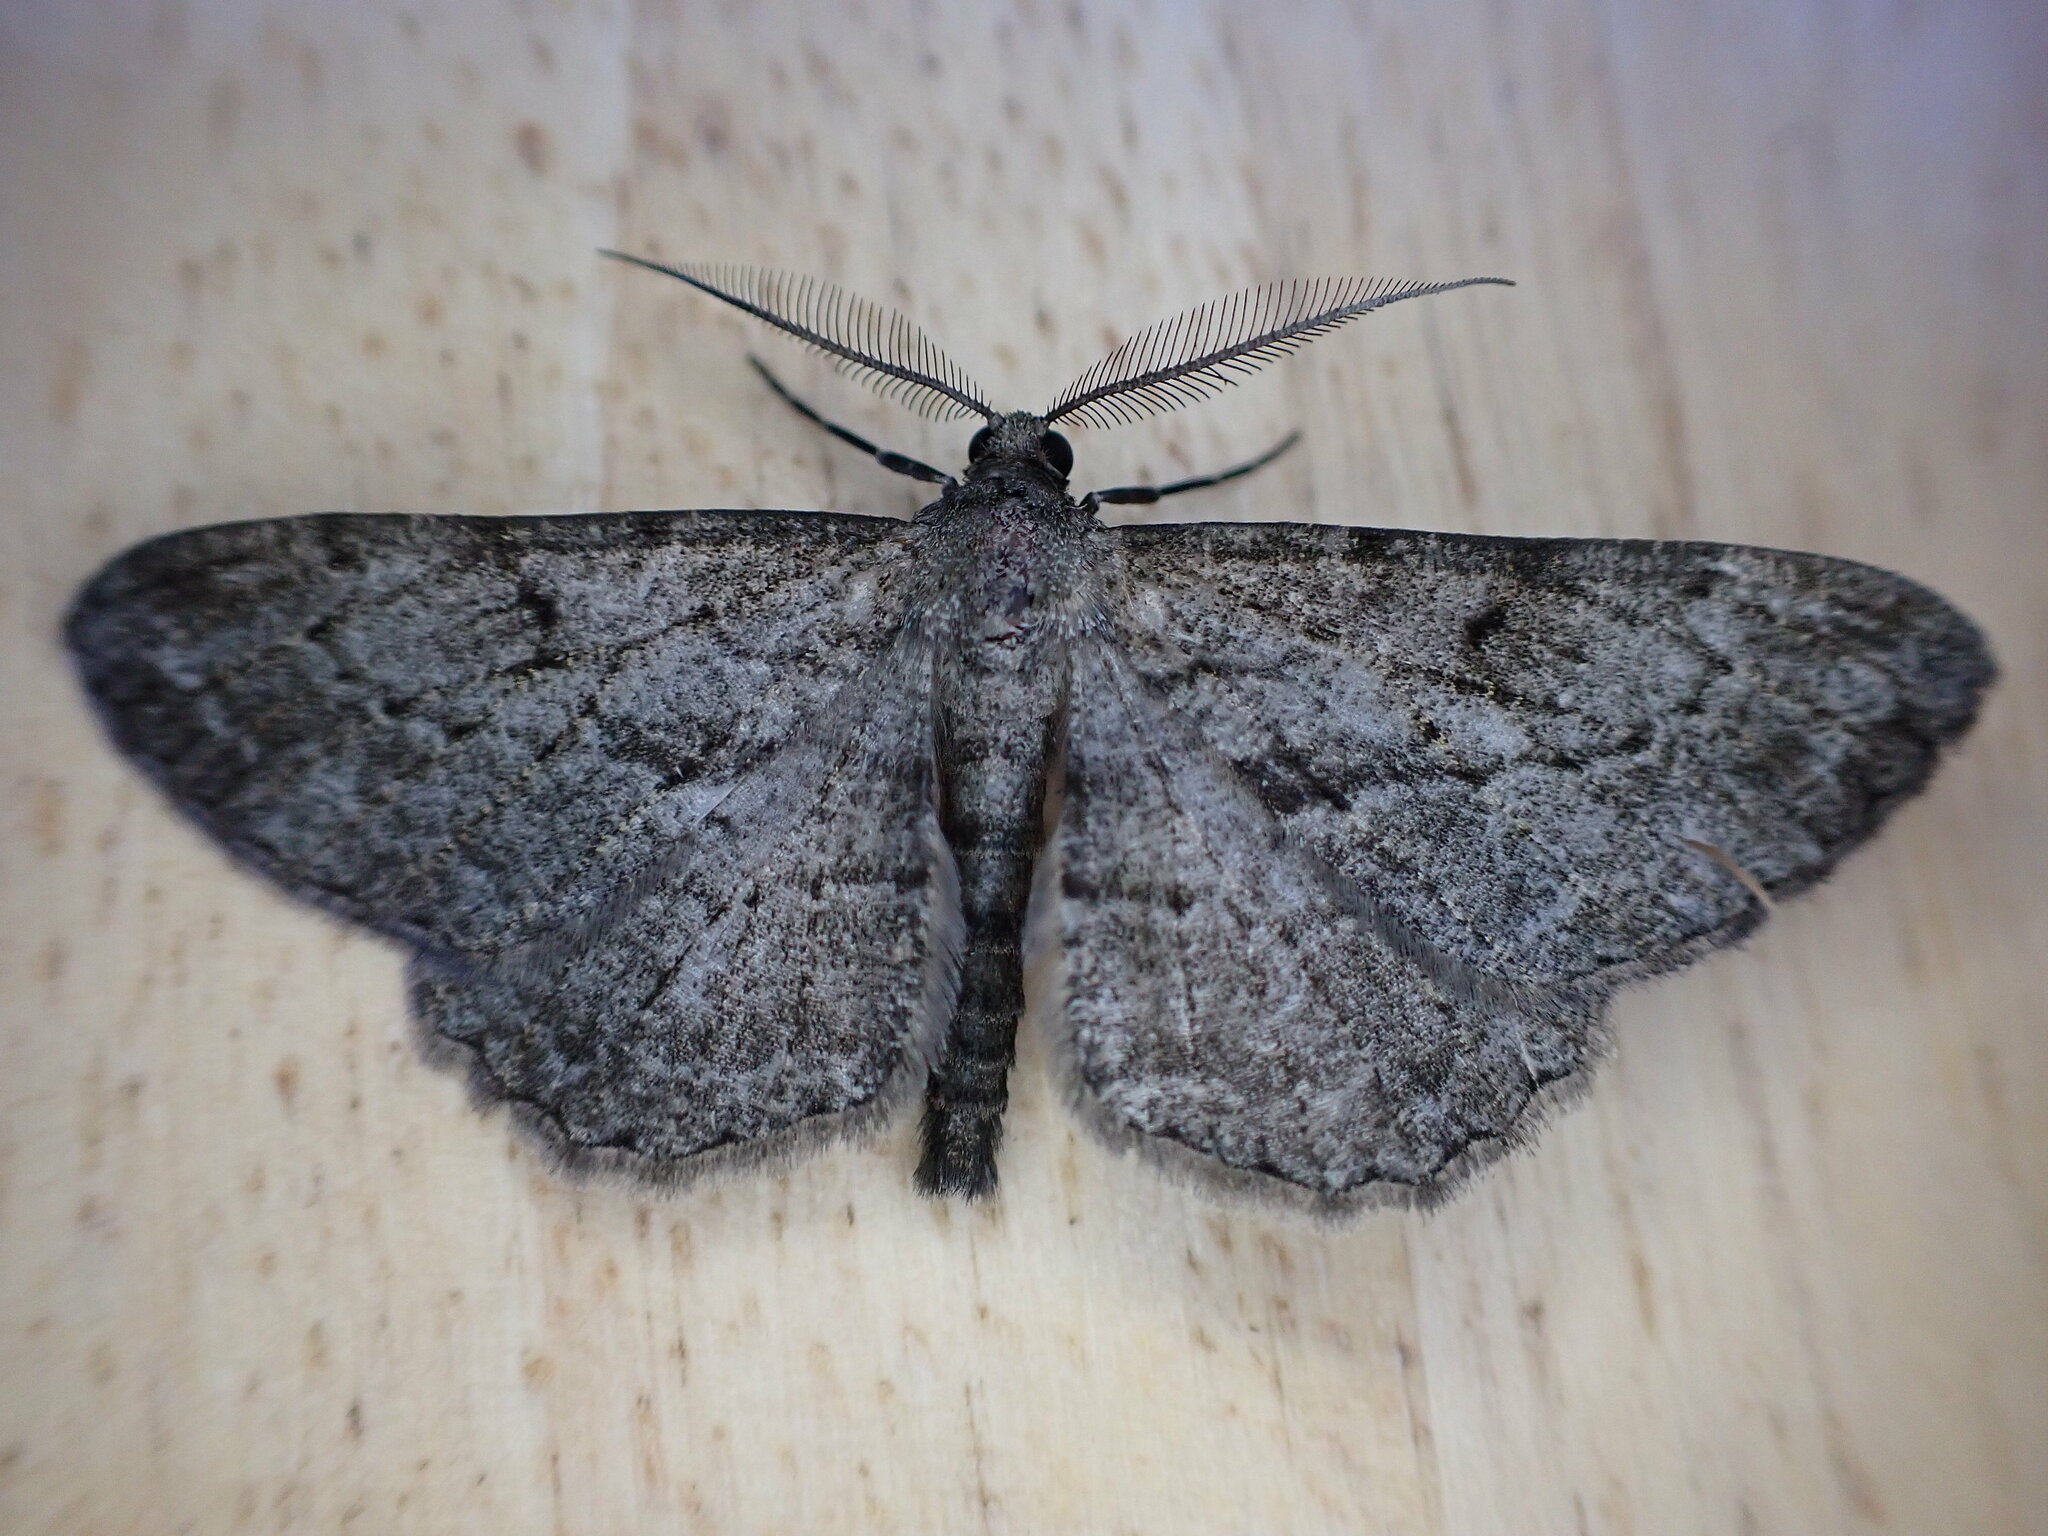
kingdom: Animalia
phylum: Arthropoda
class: Insecta
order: Lepidoptera
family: Geometridae
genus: Peribatodes
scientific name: Peribatodes rhomboidaria
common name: Willow beauty
